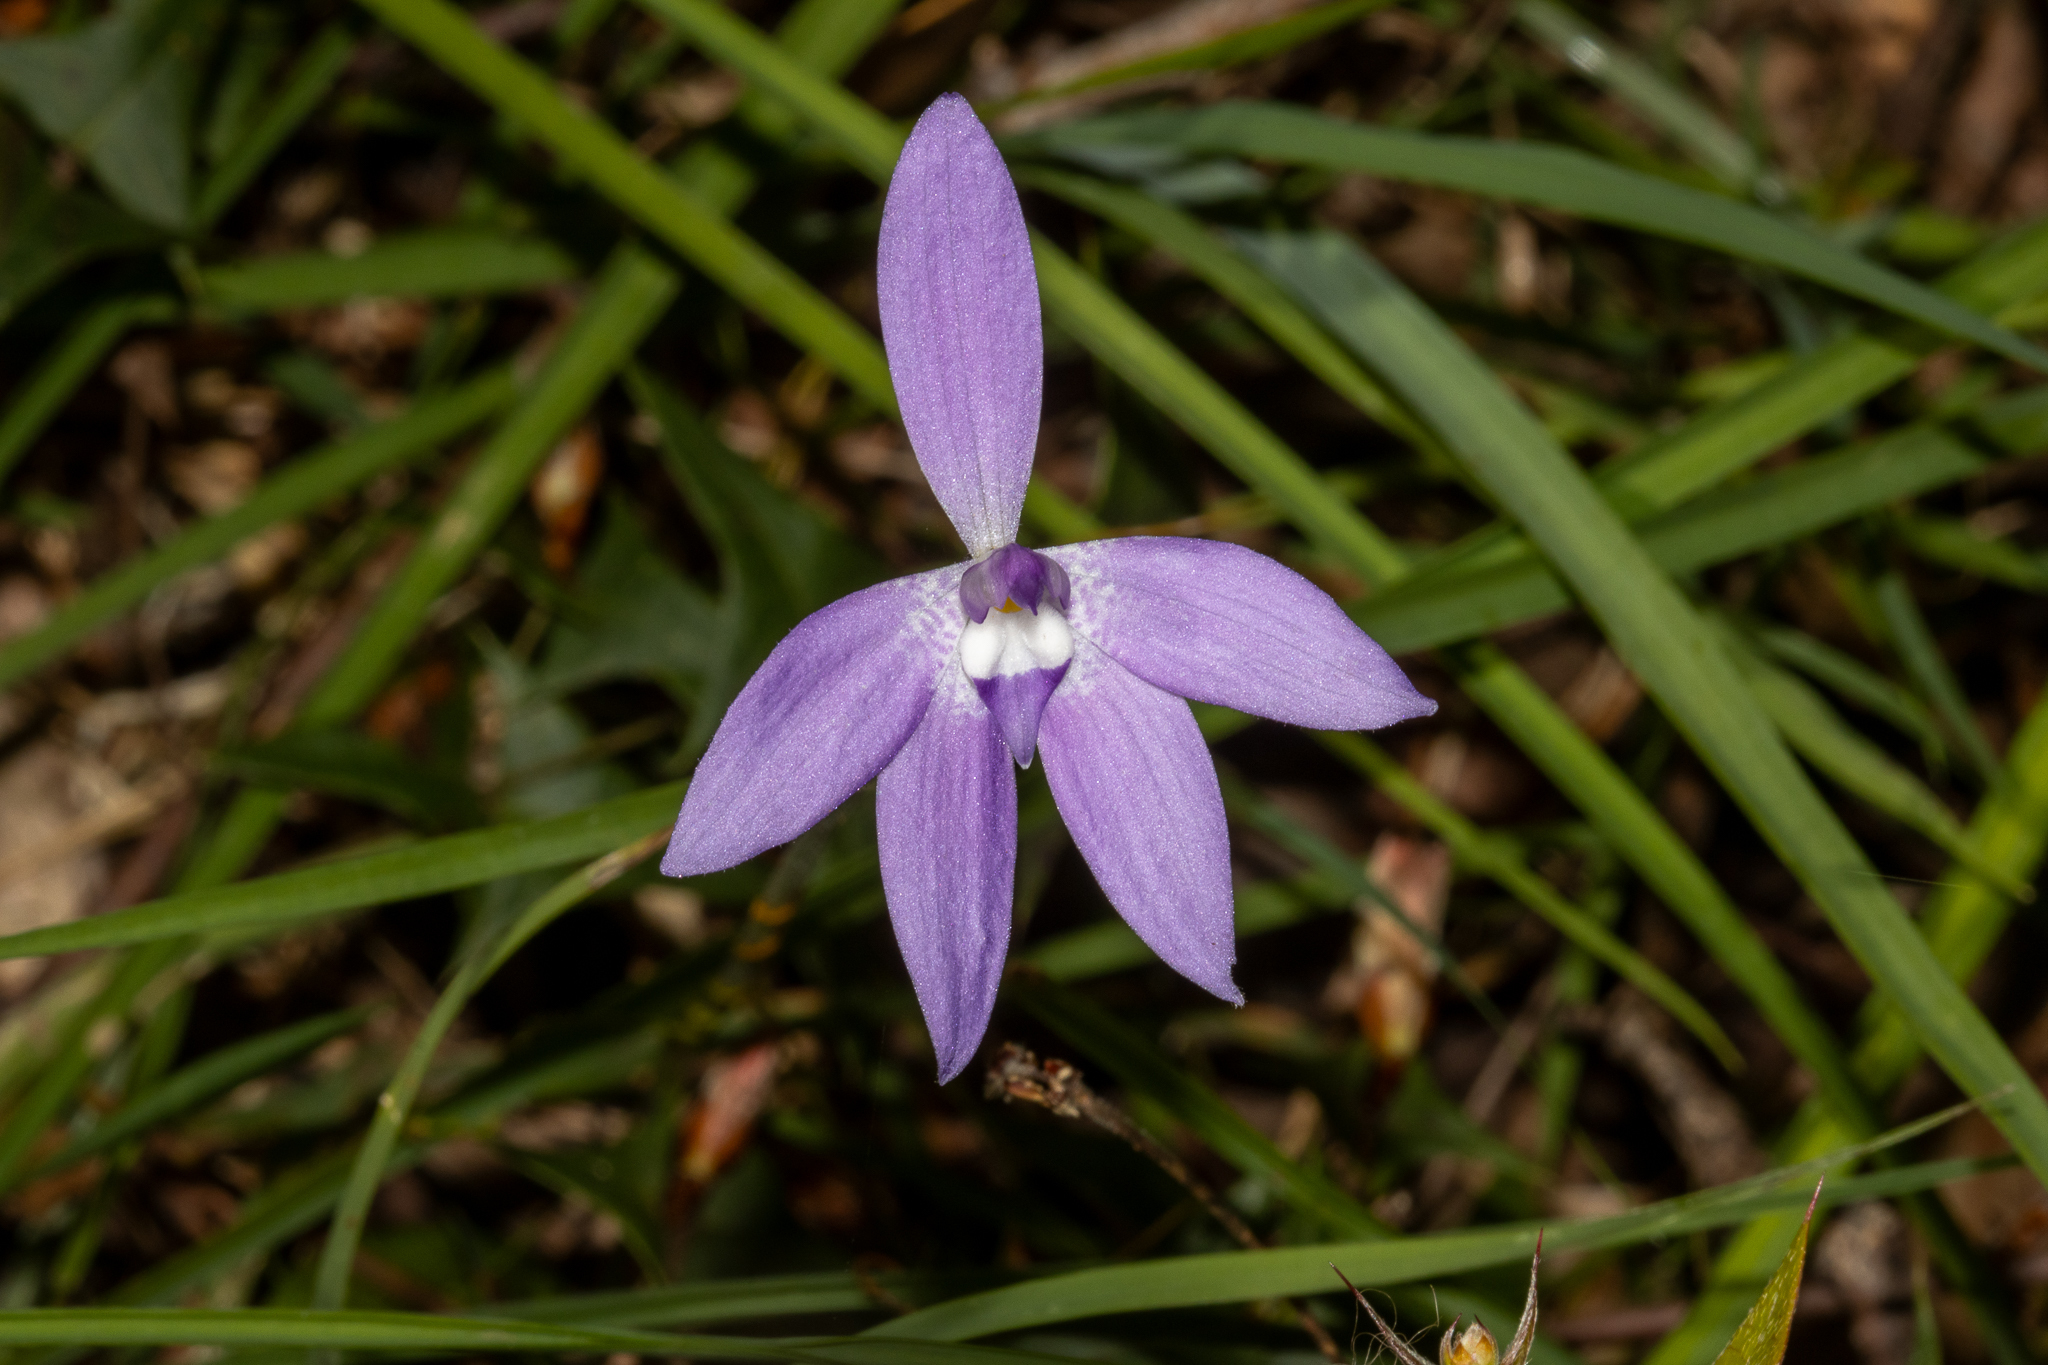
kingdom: Plantae
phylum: Tracheophyta
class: Liliopsida
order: Asparagales
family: Orchidaceae
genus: Caladenia
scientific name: Caladenia major
